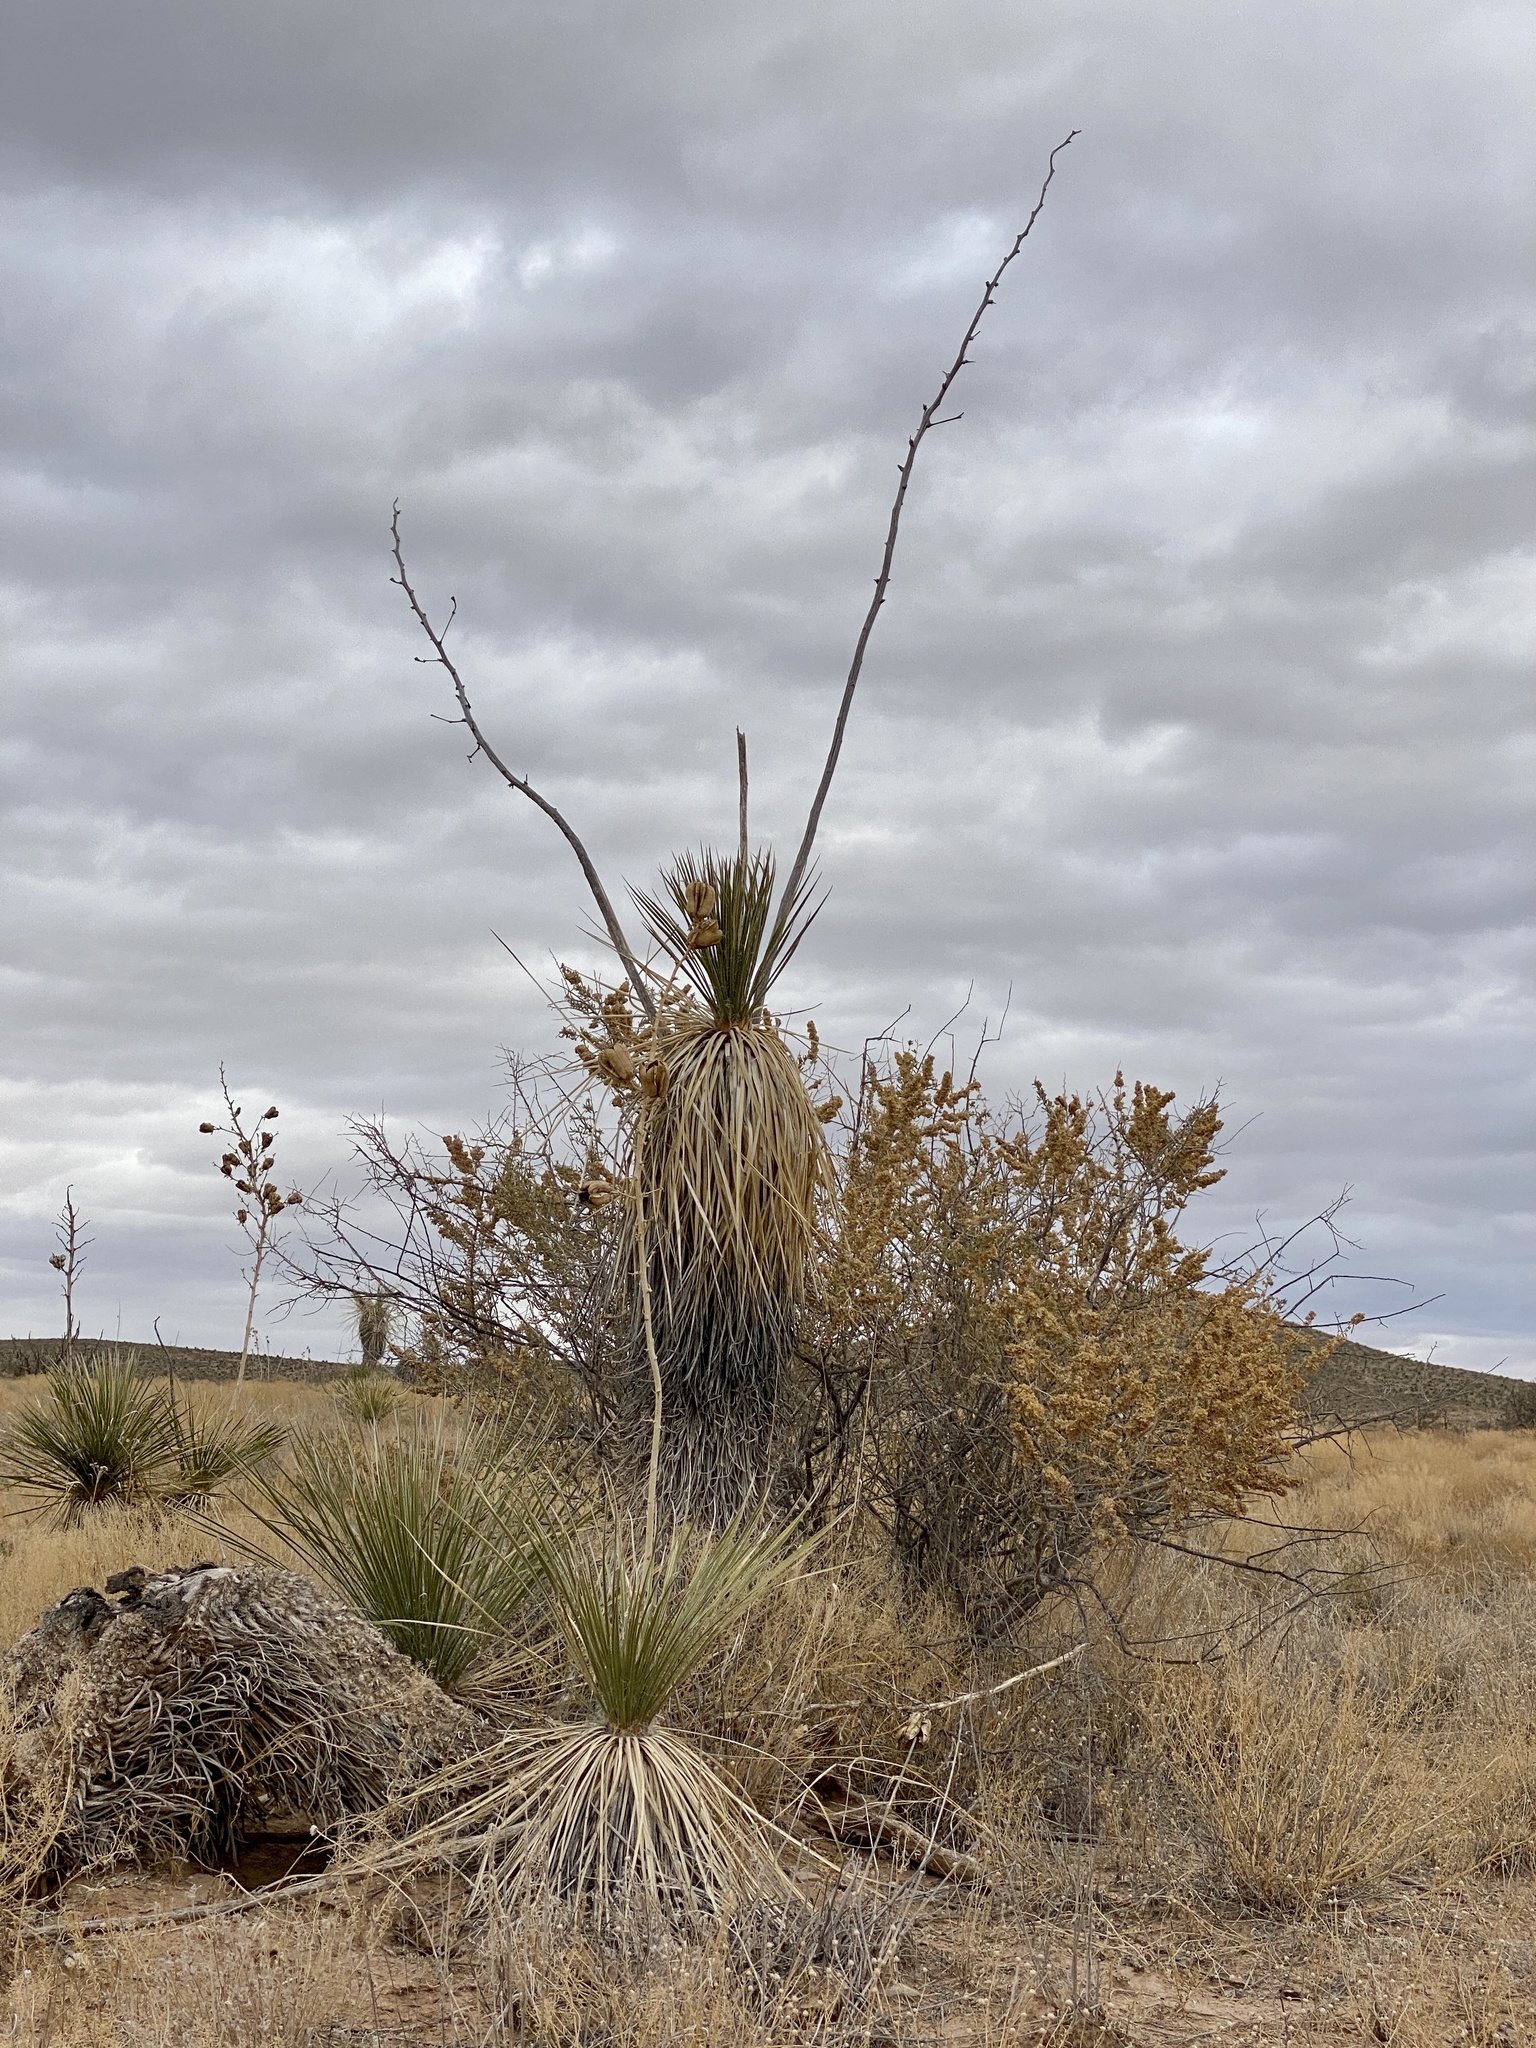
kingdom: Plantae
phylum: Tracheophyta
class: Liliopsida
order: Asparagales
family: Asparagaceae
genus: Yucca
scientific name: Yucca elata
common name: Palmella
